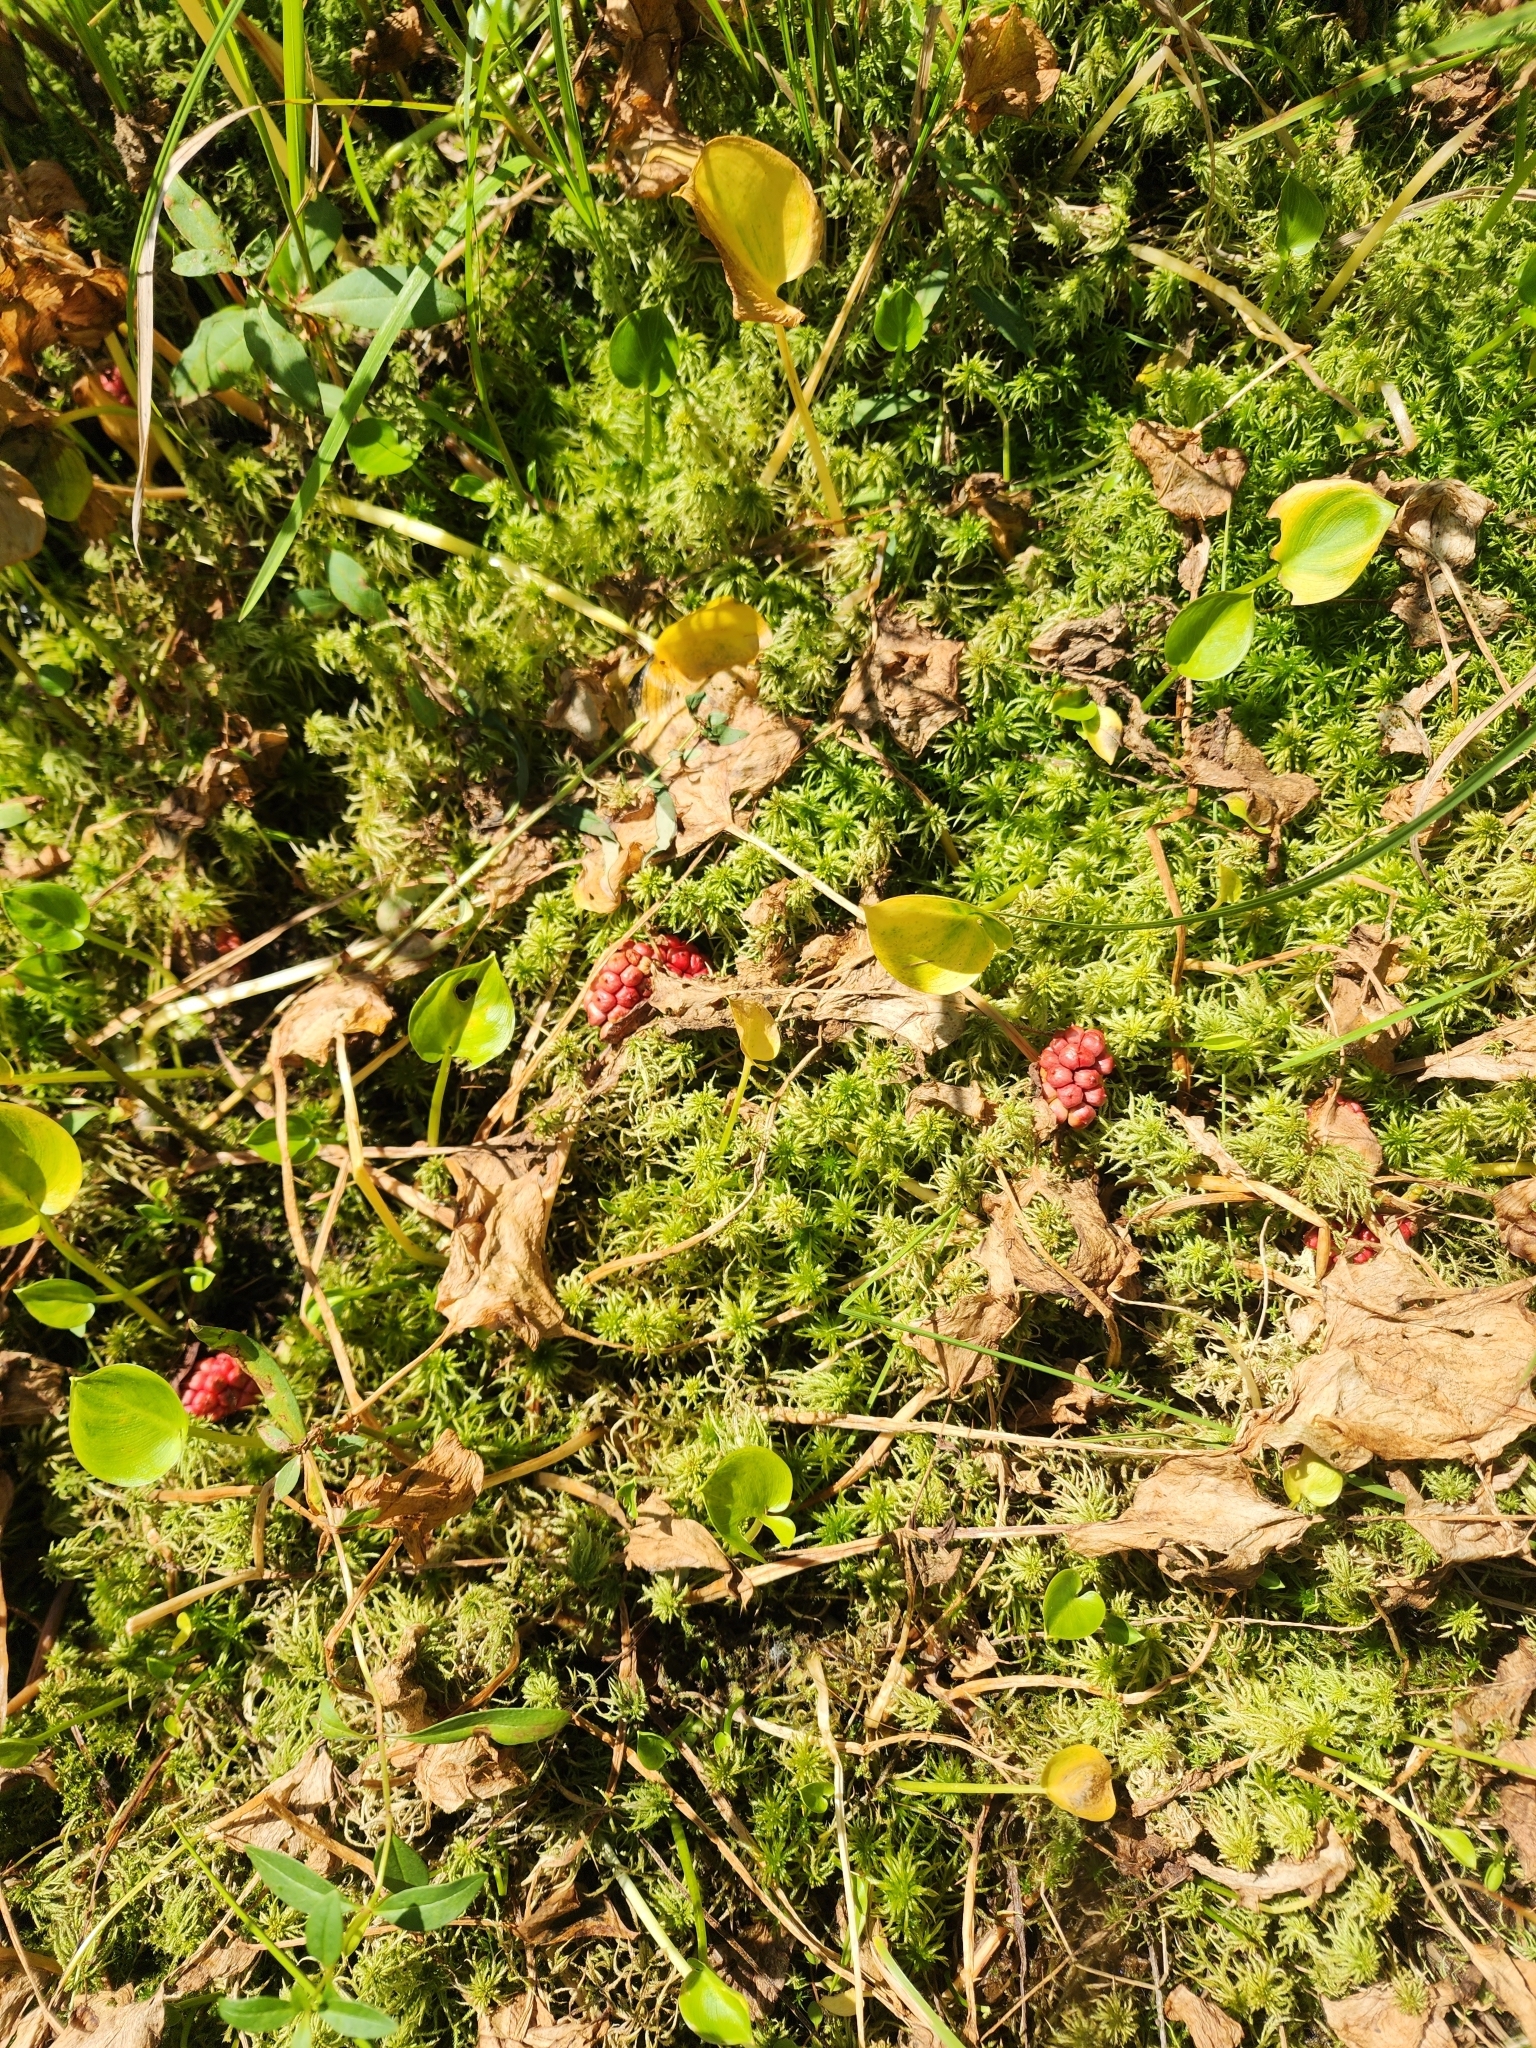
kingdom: Plantae
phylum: Tracheophyta
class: Liliopsida
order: Alismatales
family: Araceae
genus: Calla
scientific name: Calla palustris
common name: Bog arum
